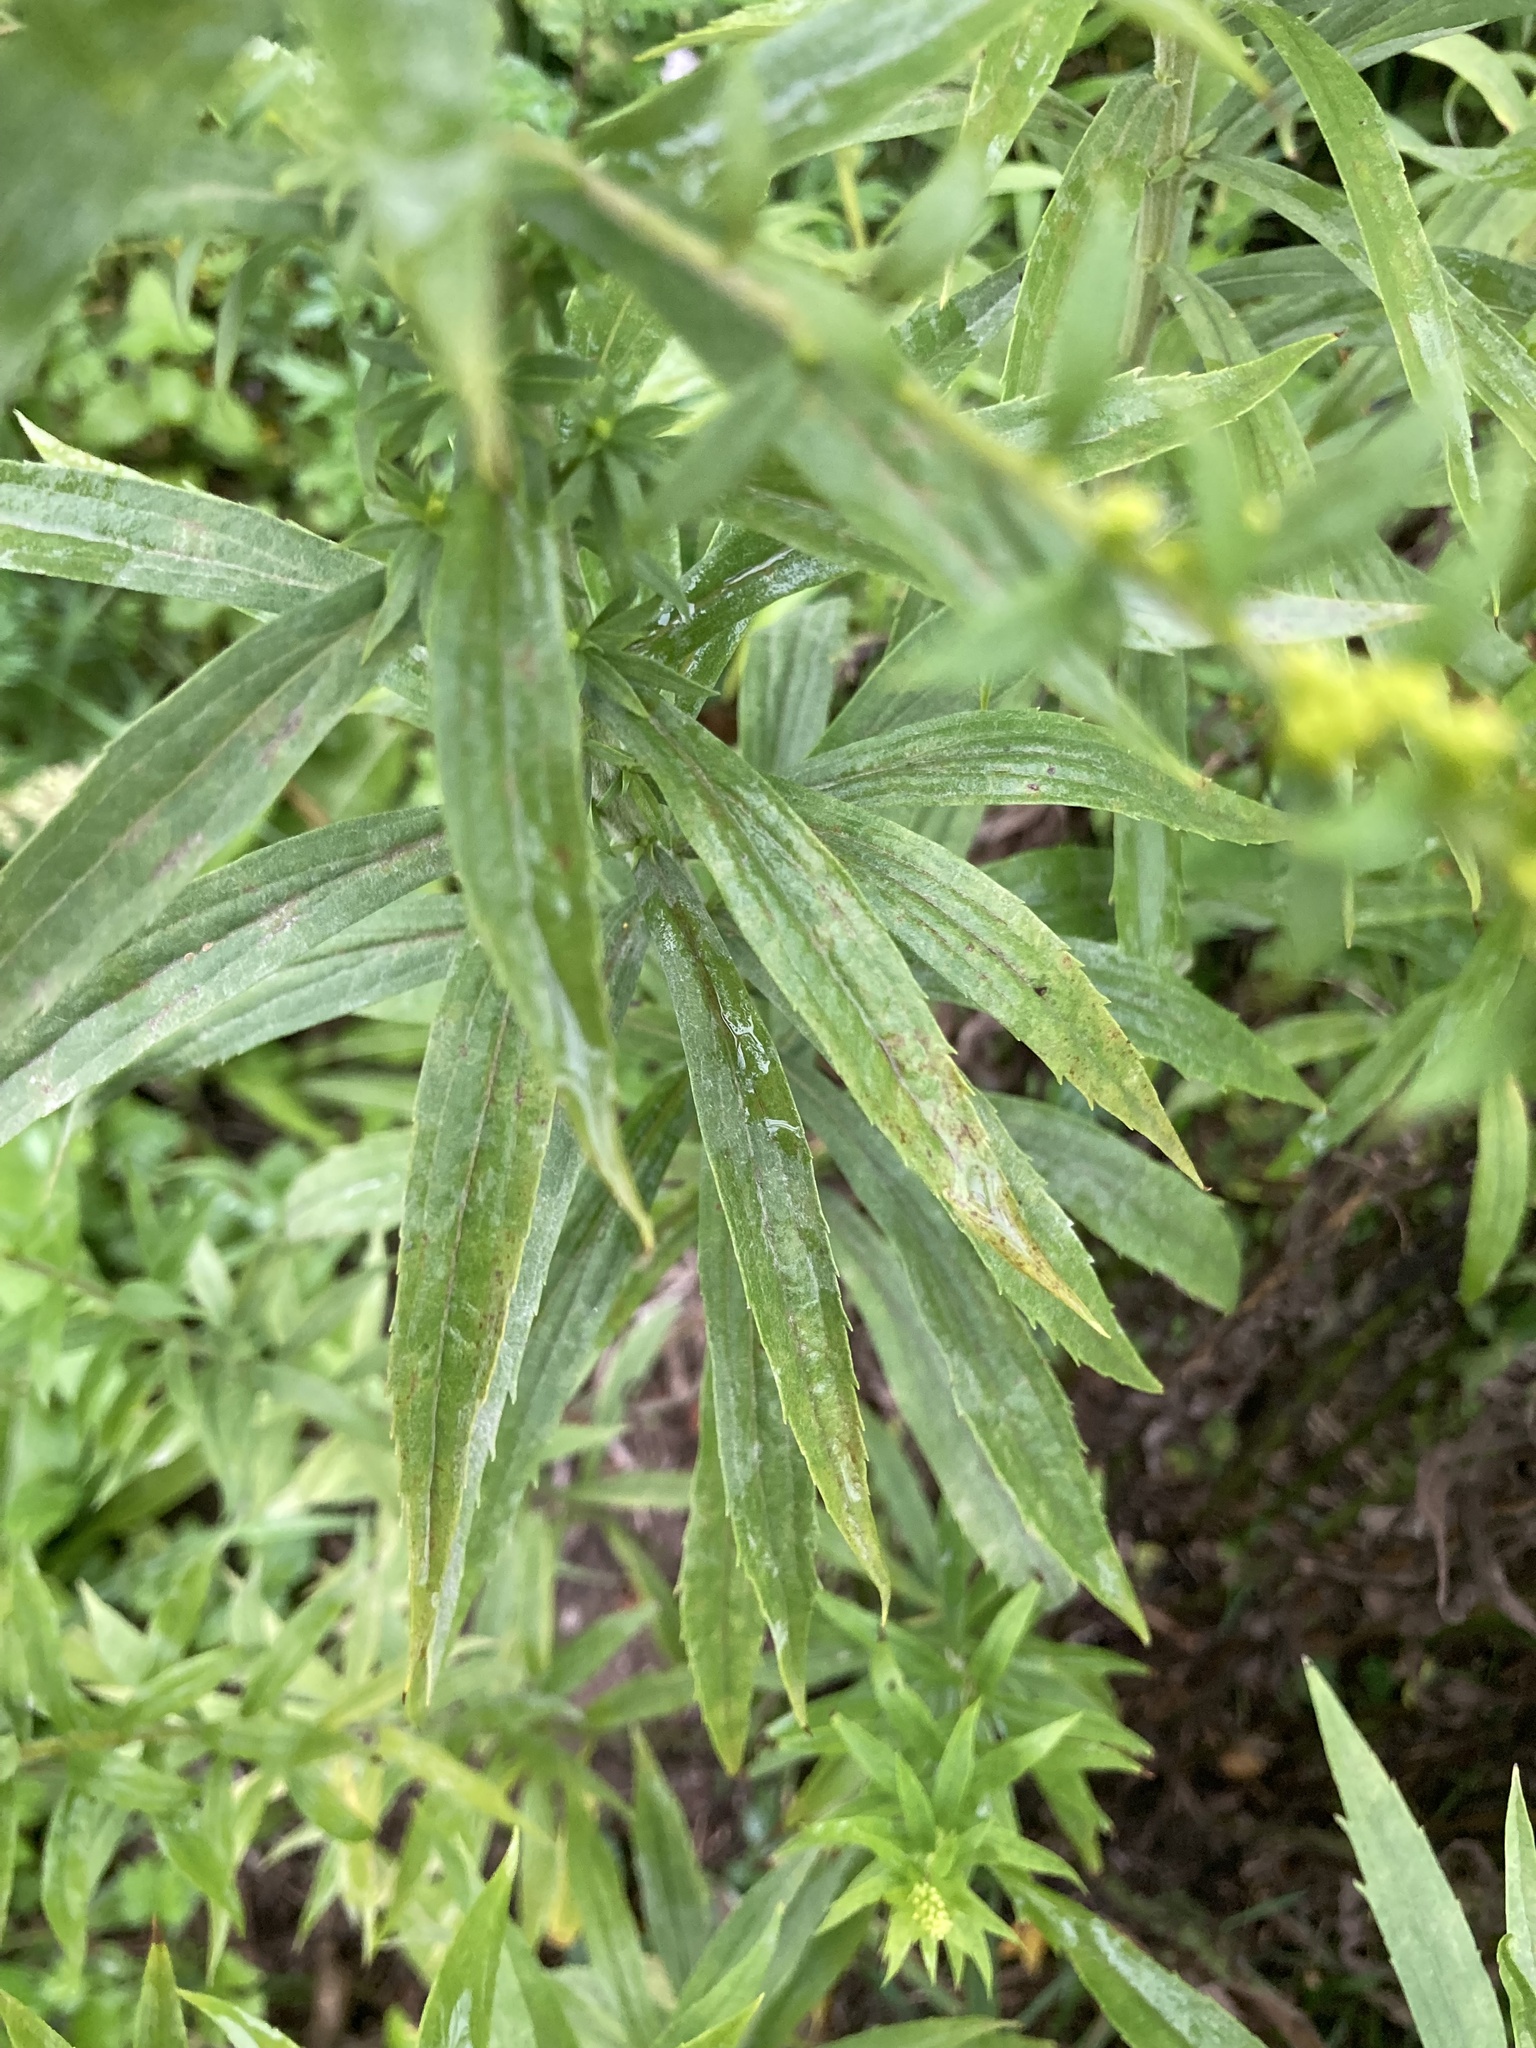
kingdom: Plantae
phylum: Tracheophyta
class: Magnoliopsida
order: Asterales
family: Asteraceae
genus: Solidago
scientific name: Solidago canadensis
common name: Canada goldenrod
